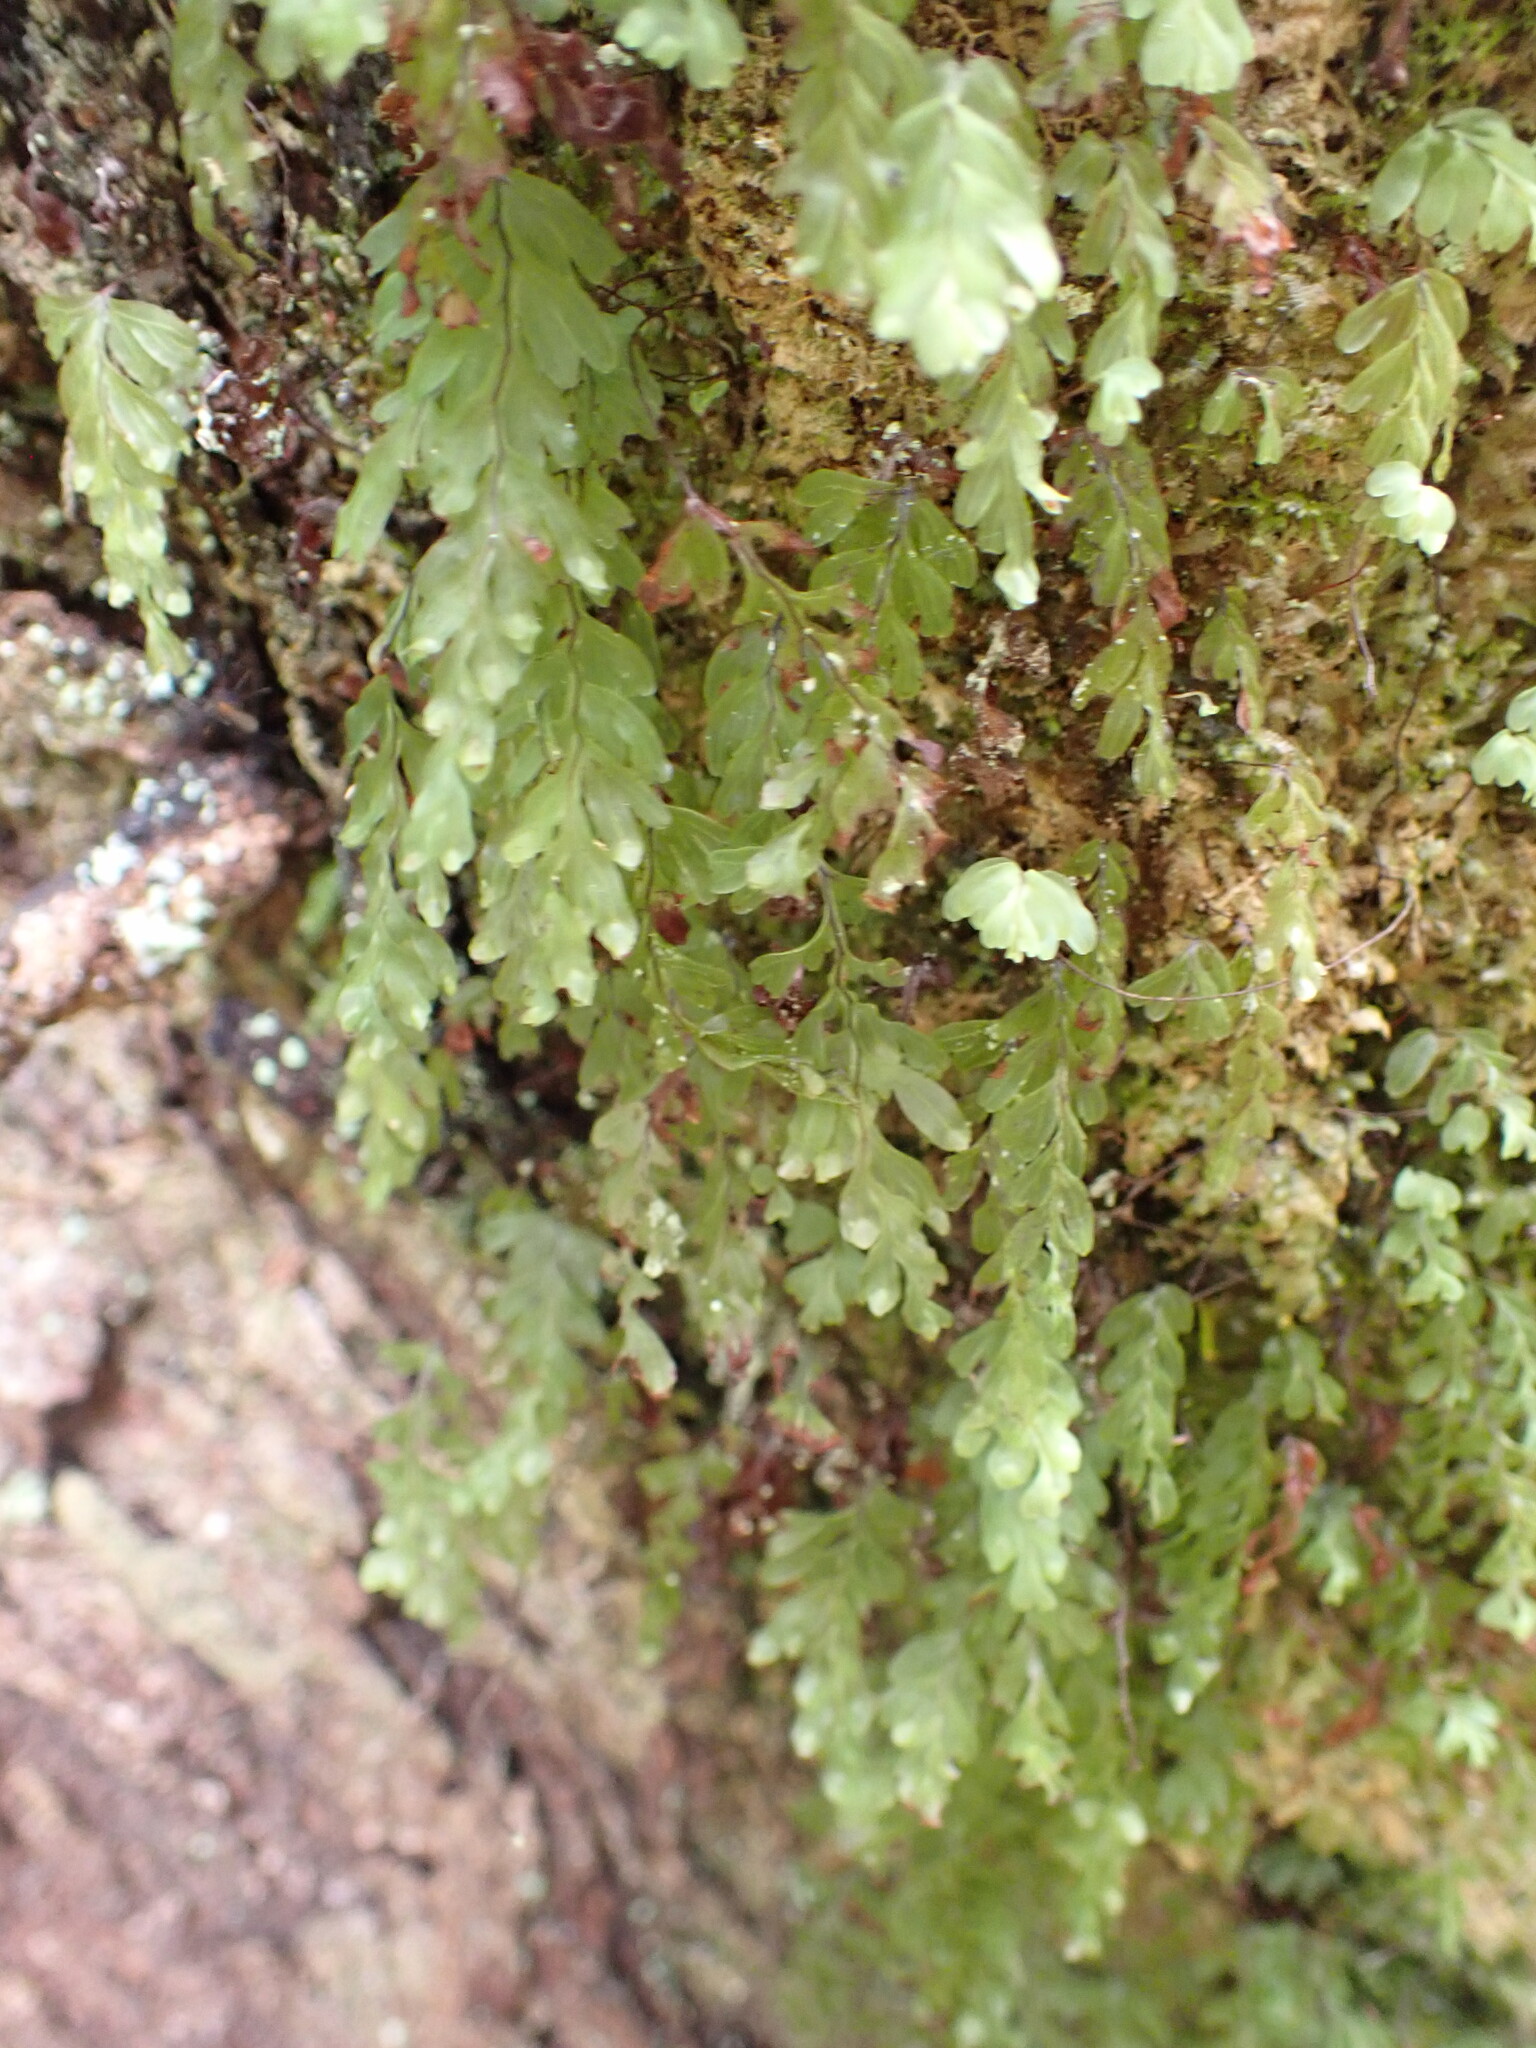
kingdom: Plantae
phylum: Tracheophyta
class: Polypodiopsida
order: Hymenophyllales
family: Hymenophyllaceae
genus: Hymenophyllum
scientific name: Hymenophyllum rarum
